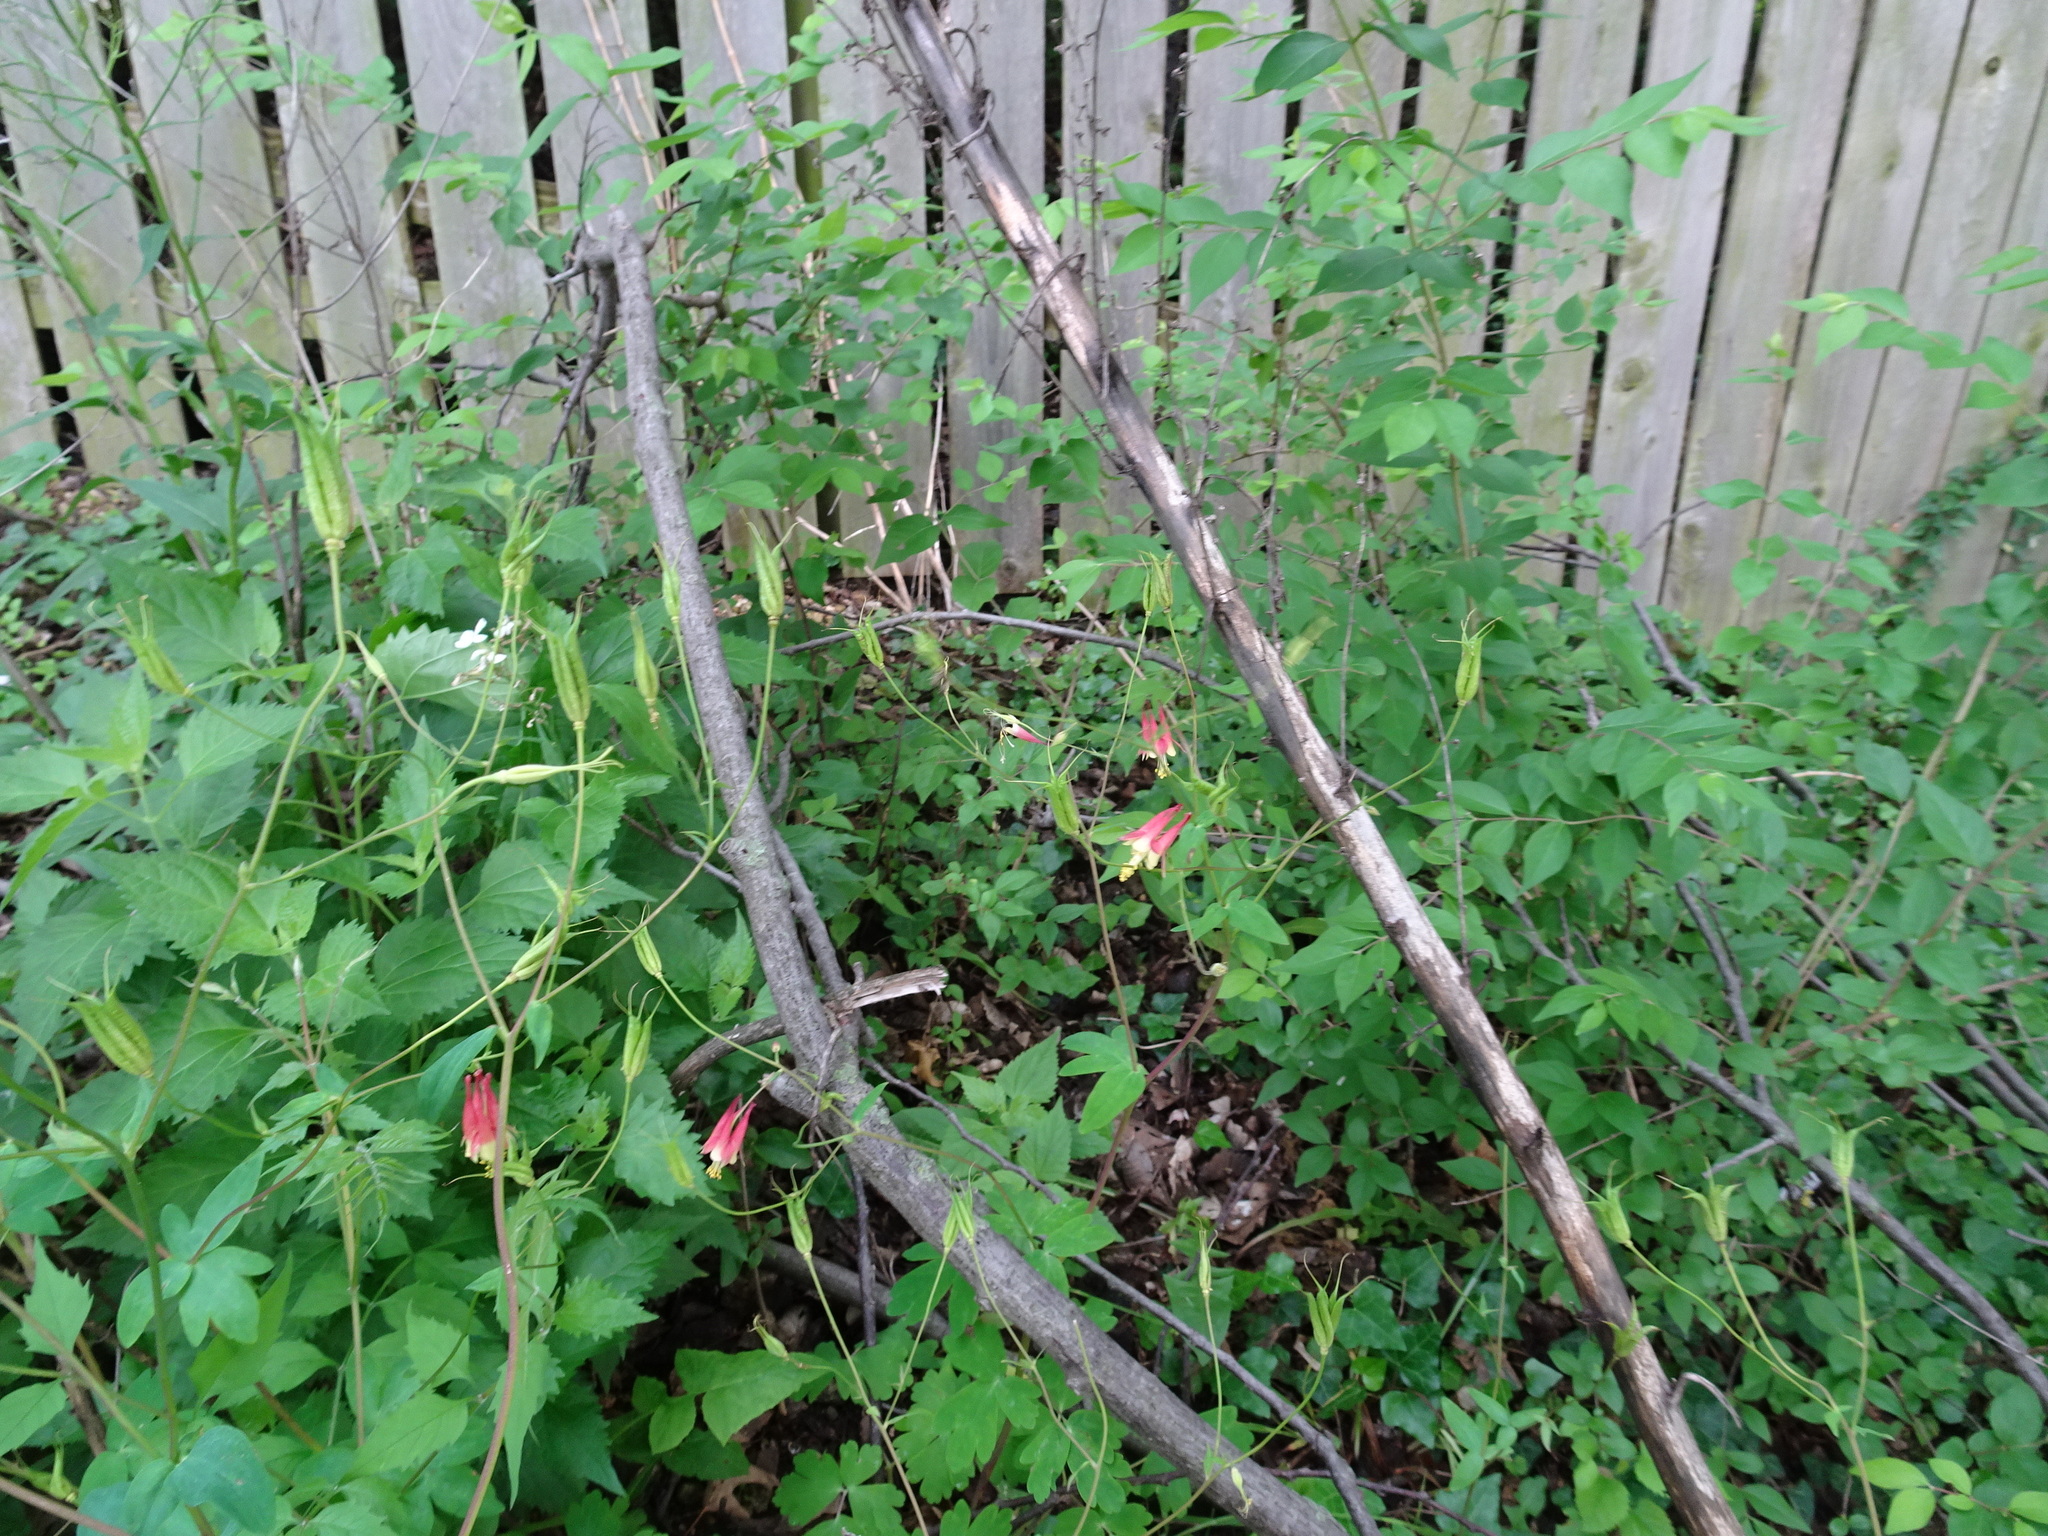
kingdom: Plantae
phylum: Tracheophyta
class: Magnoliopsida
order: Ranunculales
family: Ranunculaceae
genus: Aquilegia
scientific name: Aquilegia canadensis
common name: American columbine
